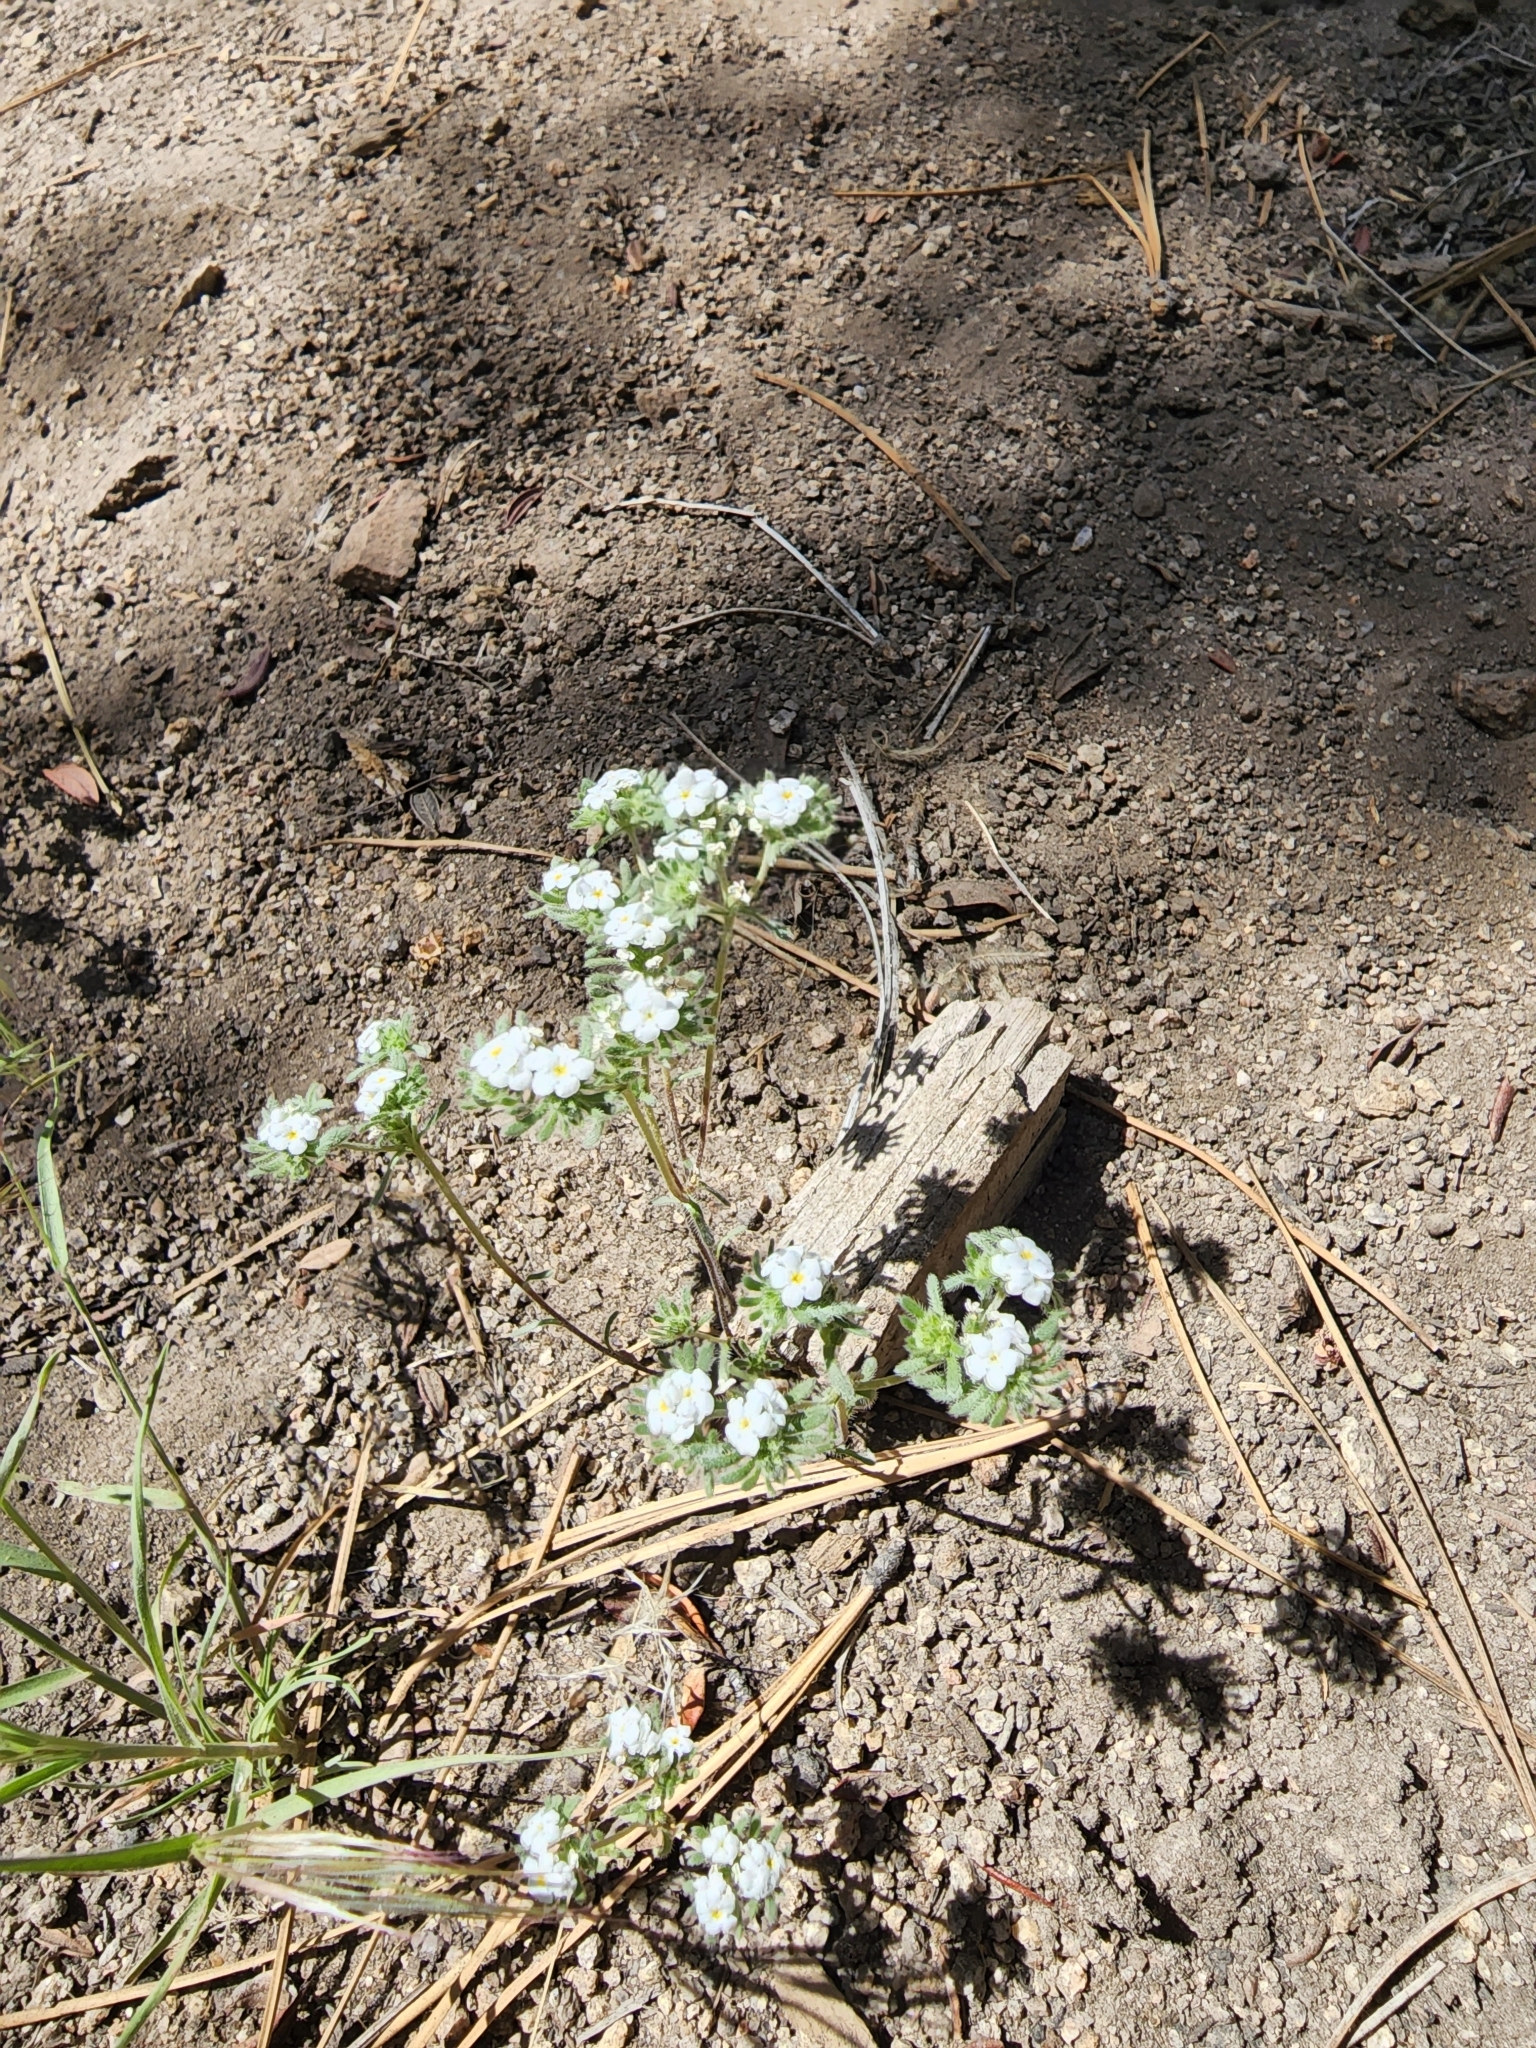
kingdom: Plantae
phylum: Tracheophyta
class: Magnoliopsida
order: Boraginales
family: Boraginaceae
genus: Eremocarya
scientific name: Eremocarya lepida
